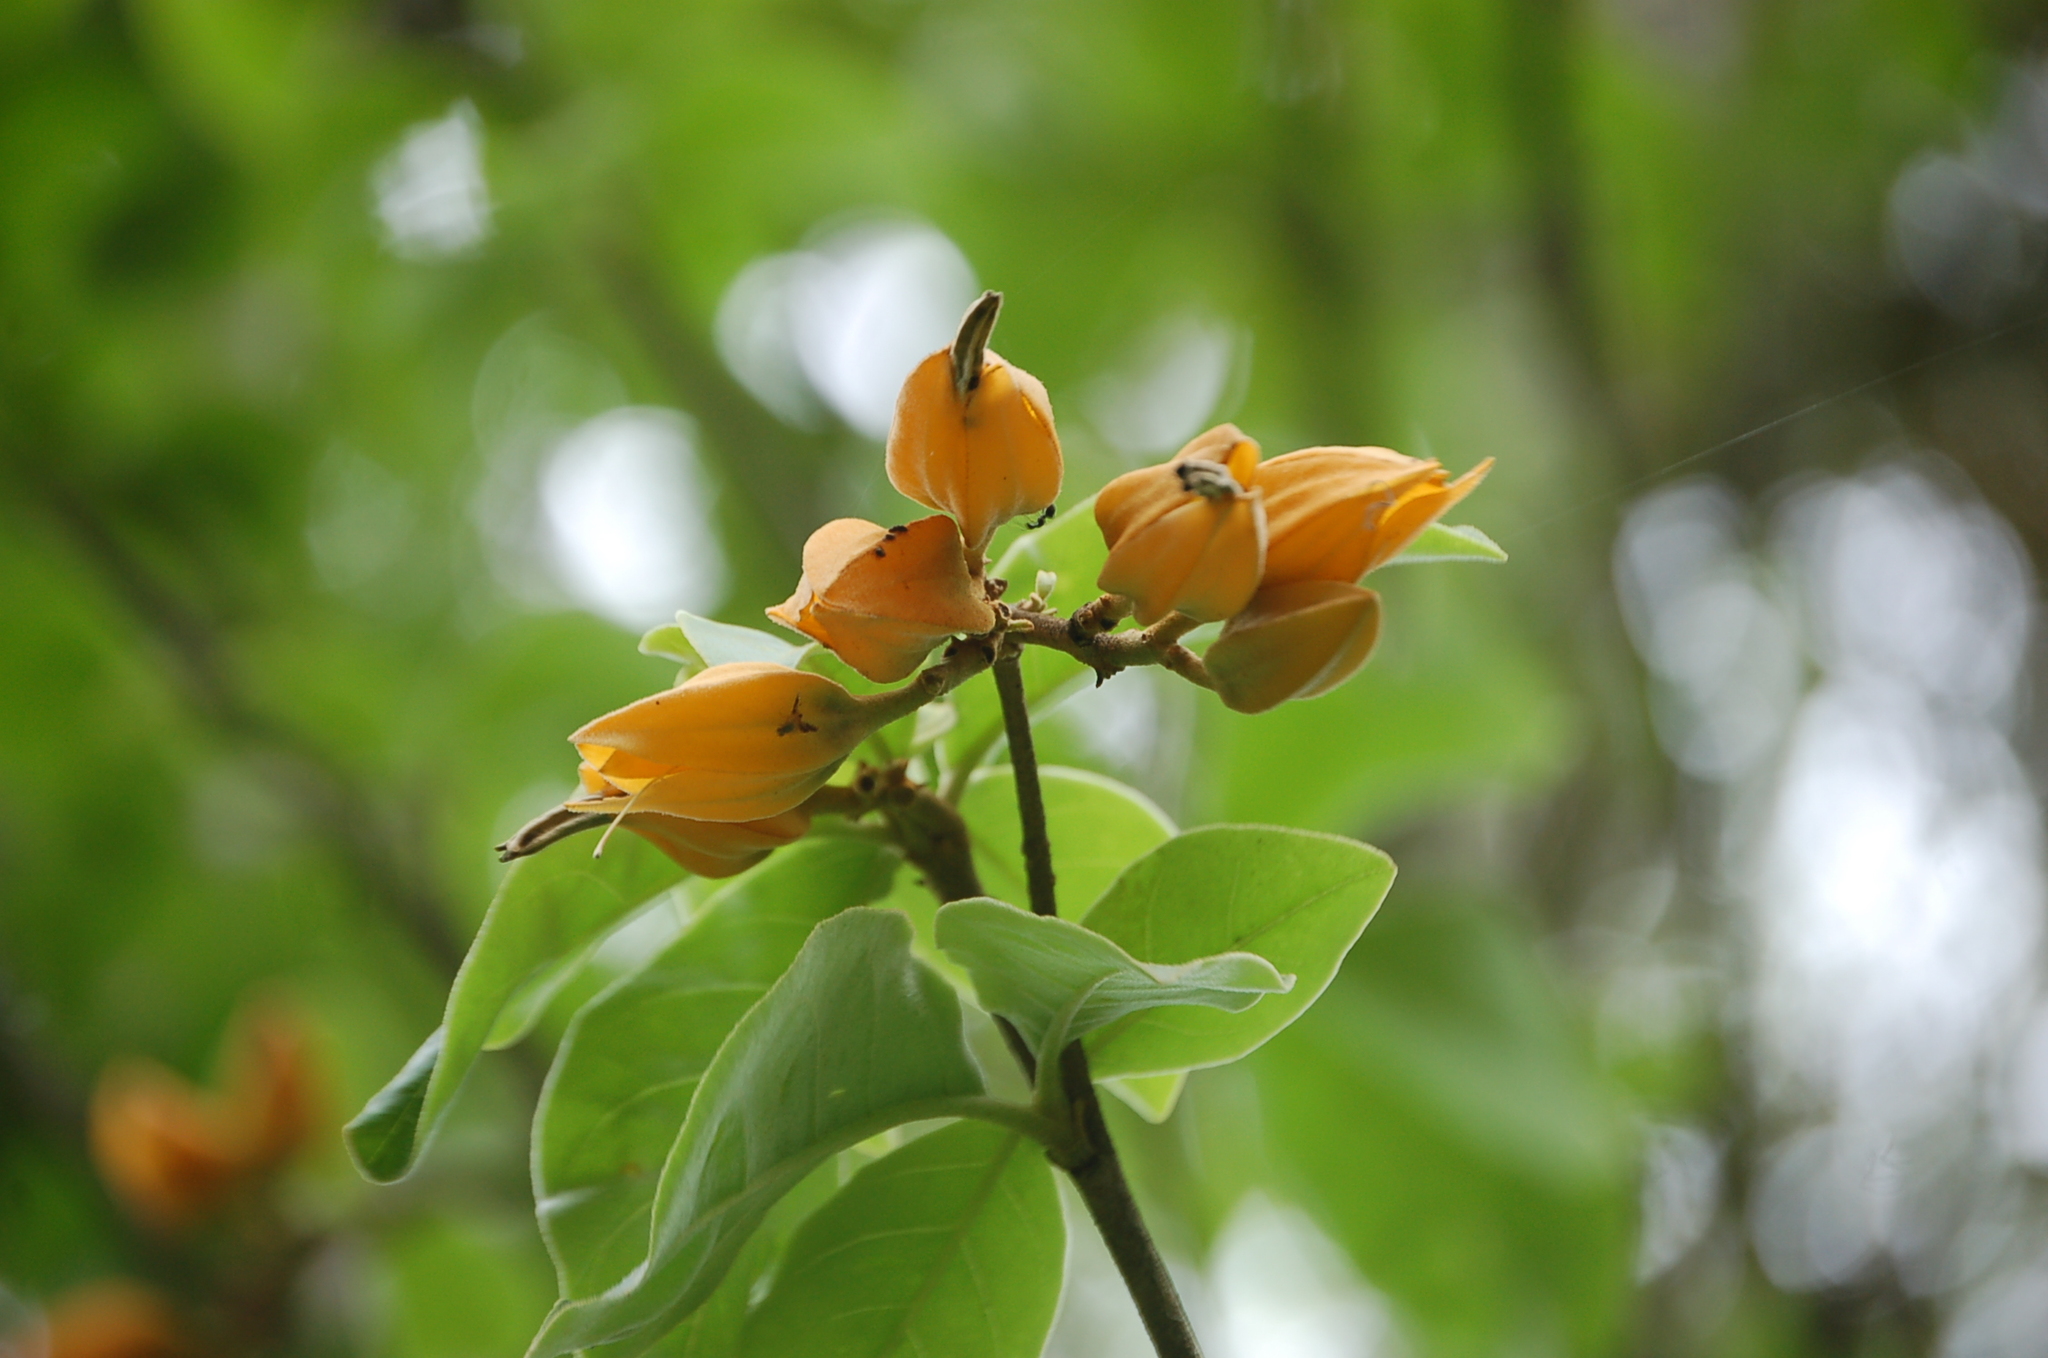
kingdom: Plantae
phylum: Tracheophyta
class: Magnoliopsida
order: Solanales
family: Solanaceae
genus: Juanulloa
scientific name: Juanulloa mexicana
